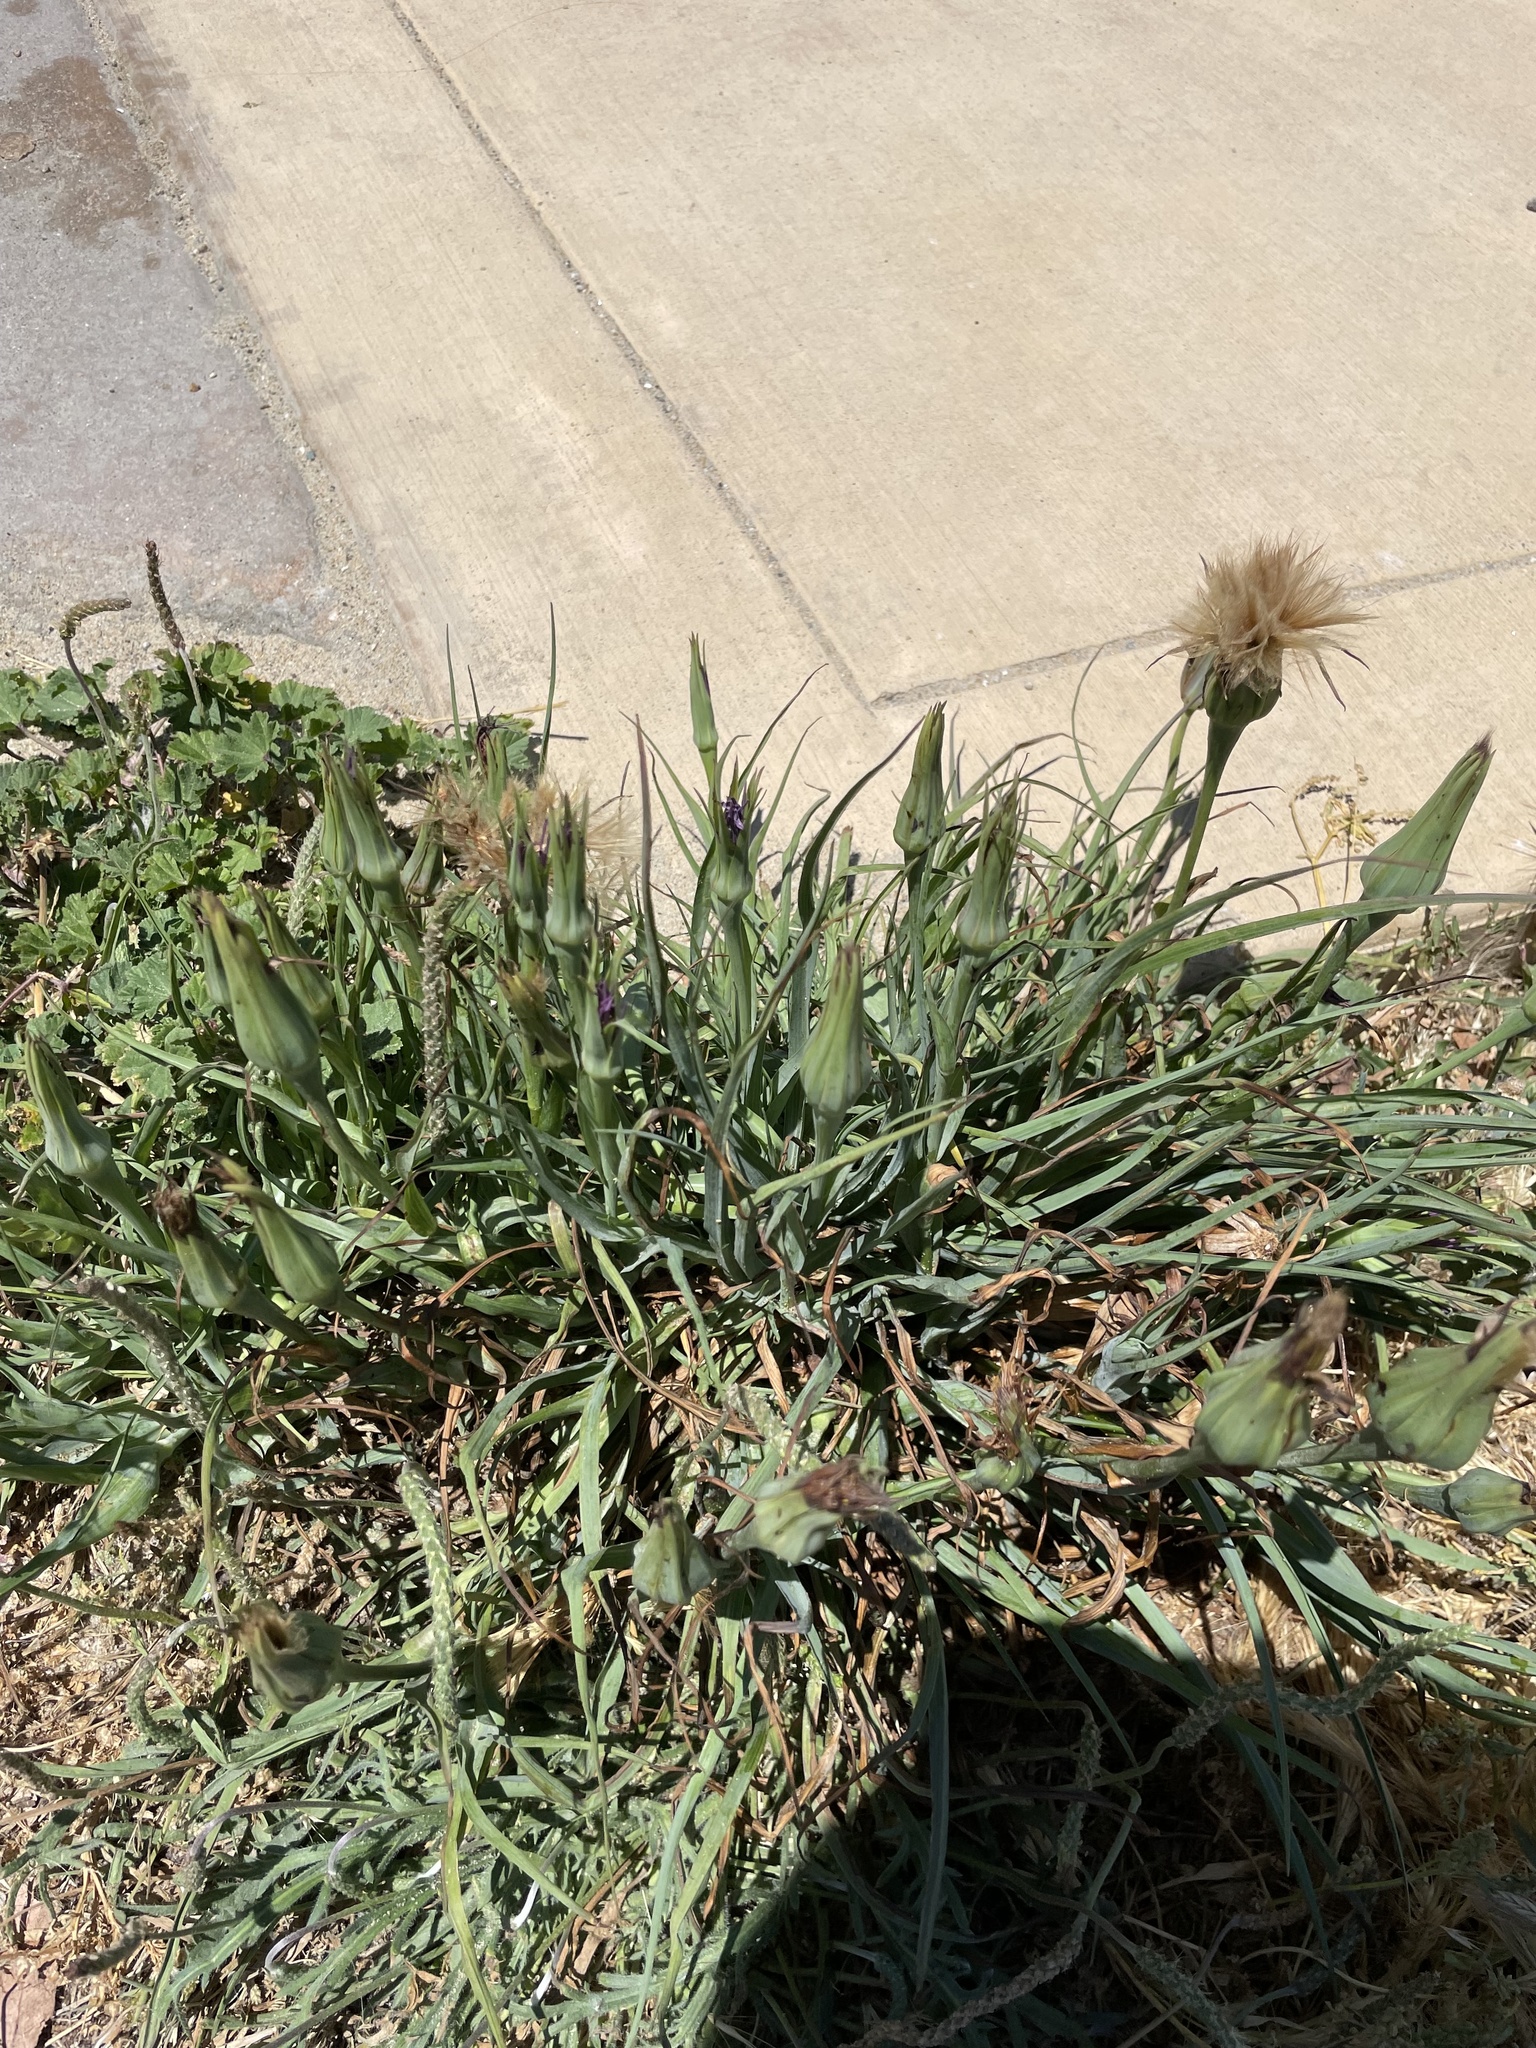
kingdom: Plantae
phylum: Tracheophyta
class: Magnoliopsida
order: Asterales
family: Asteraceae
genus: Tragopogon
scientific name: Tragopogon porrifolius
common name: Salsify
